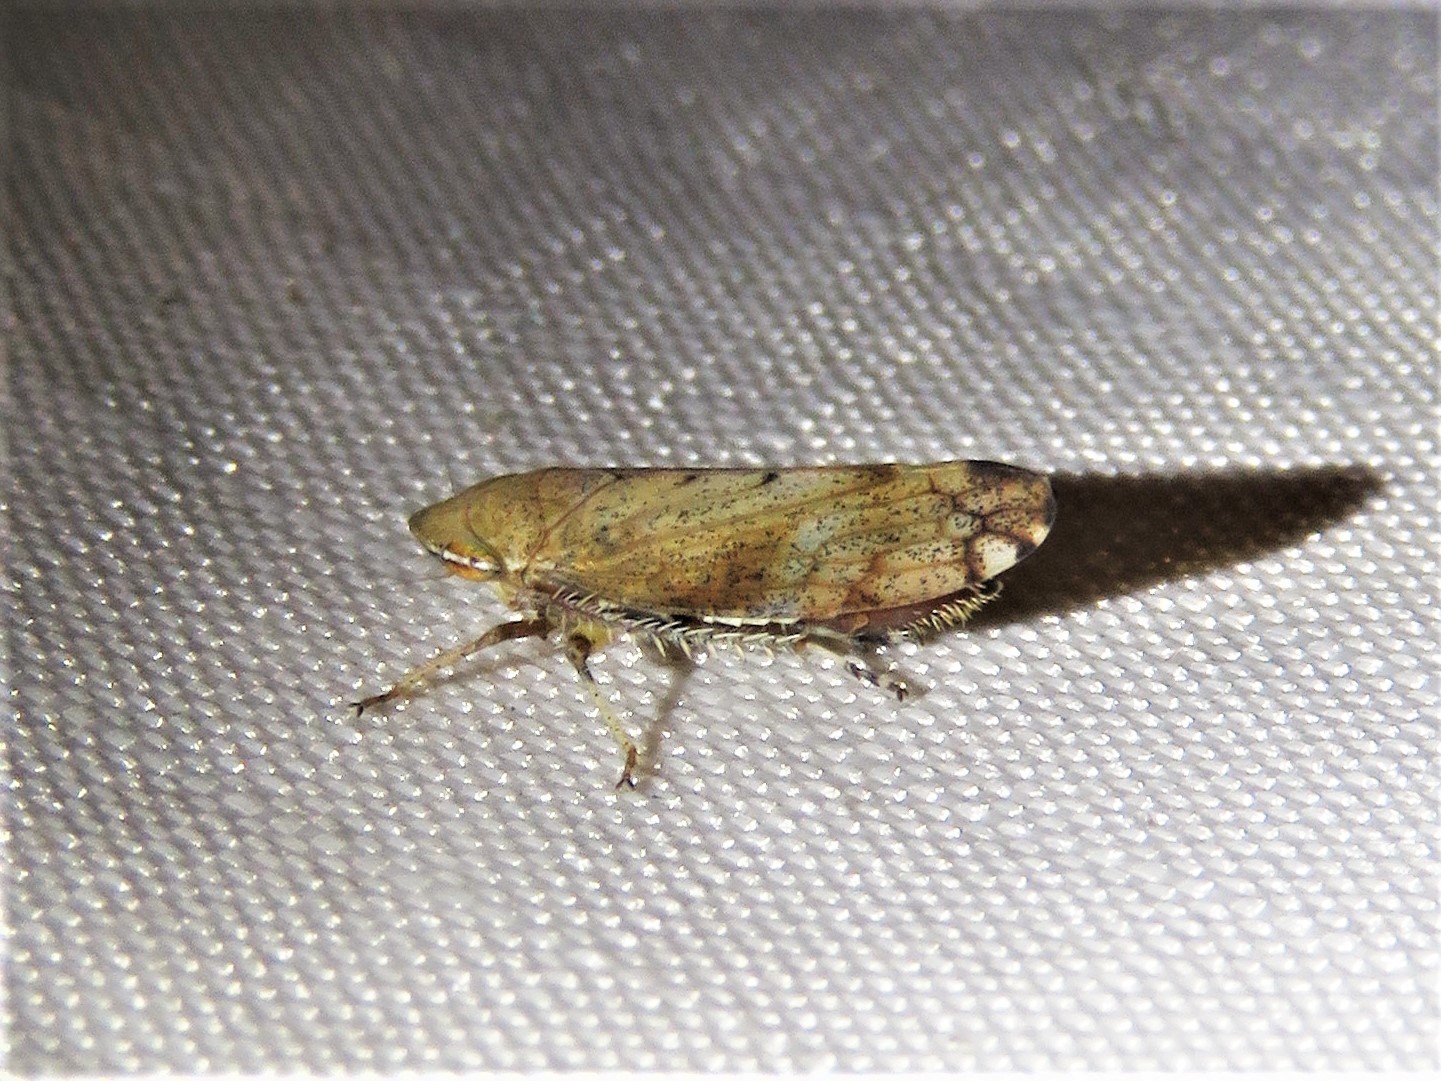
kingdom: Animalia
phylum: Arthropoda
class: Insecta
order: Hemiptera
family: Cicadellidae
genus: Fieberiella
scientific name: Fieberiella florii
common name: Flor’s leafhopper
